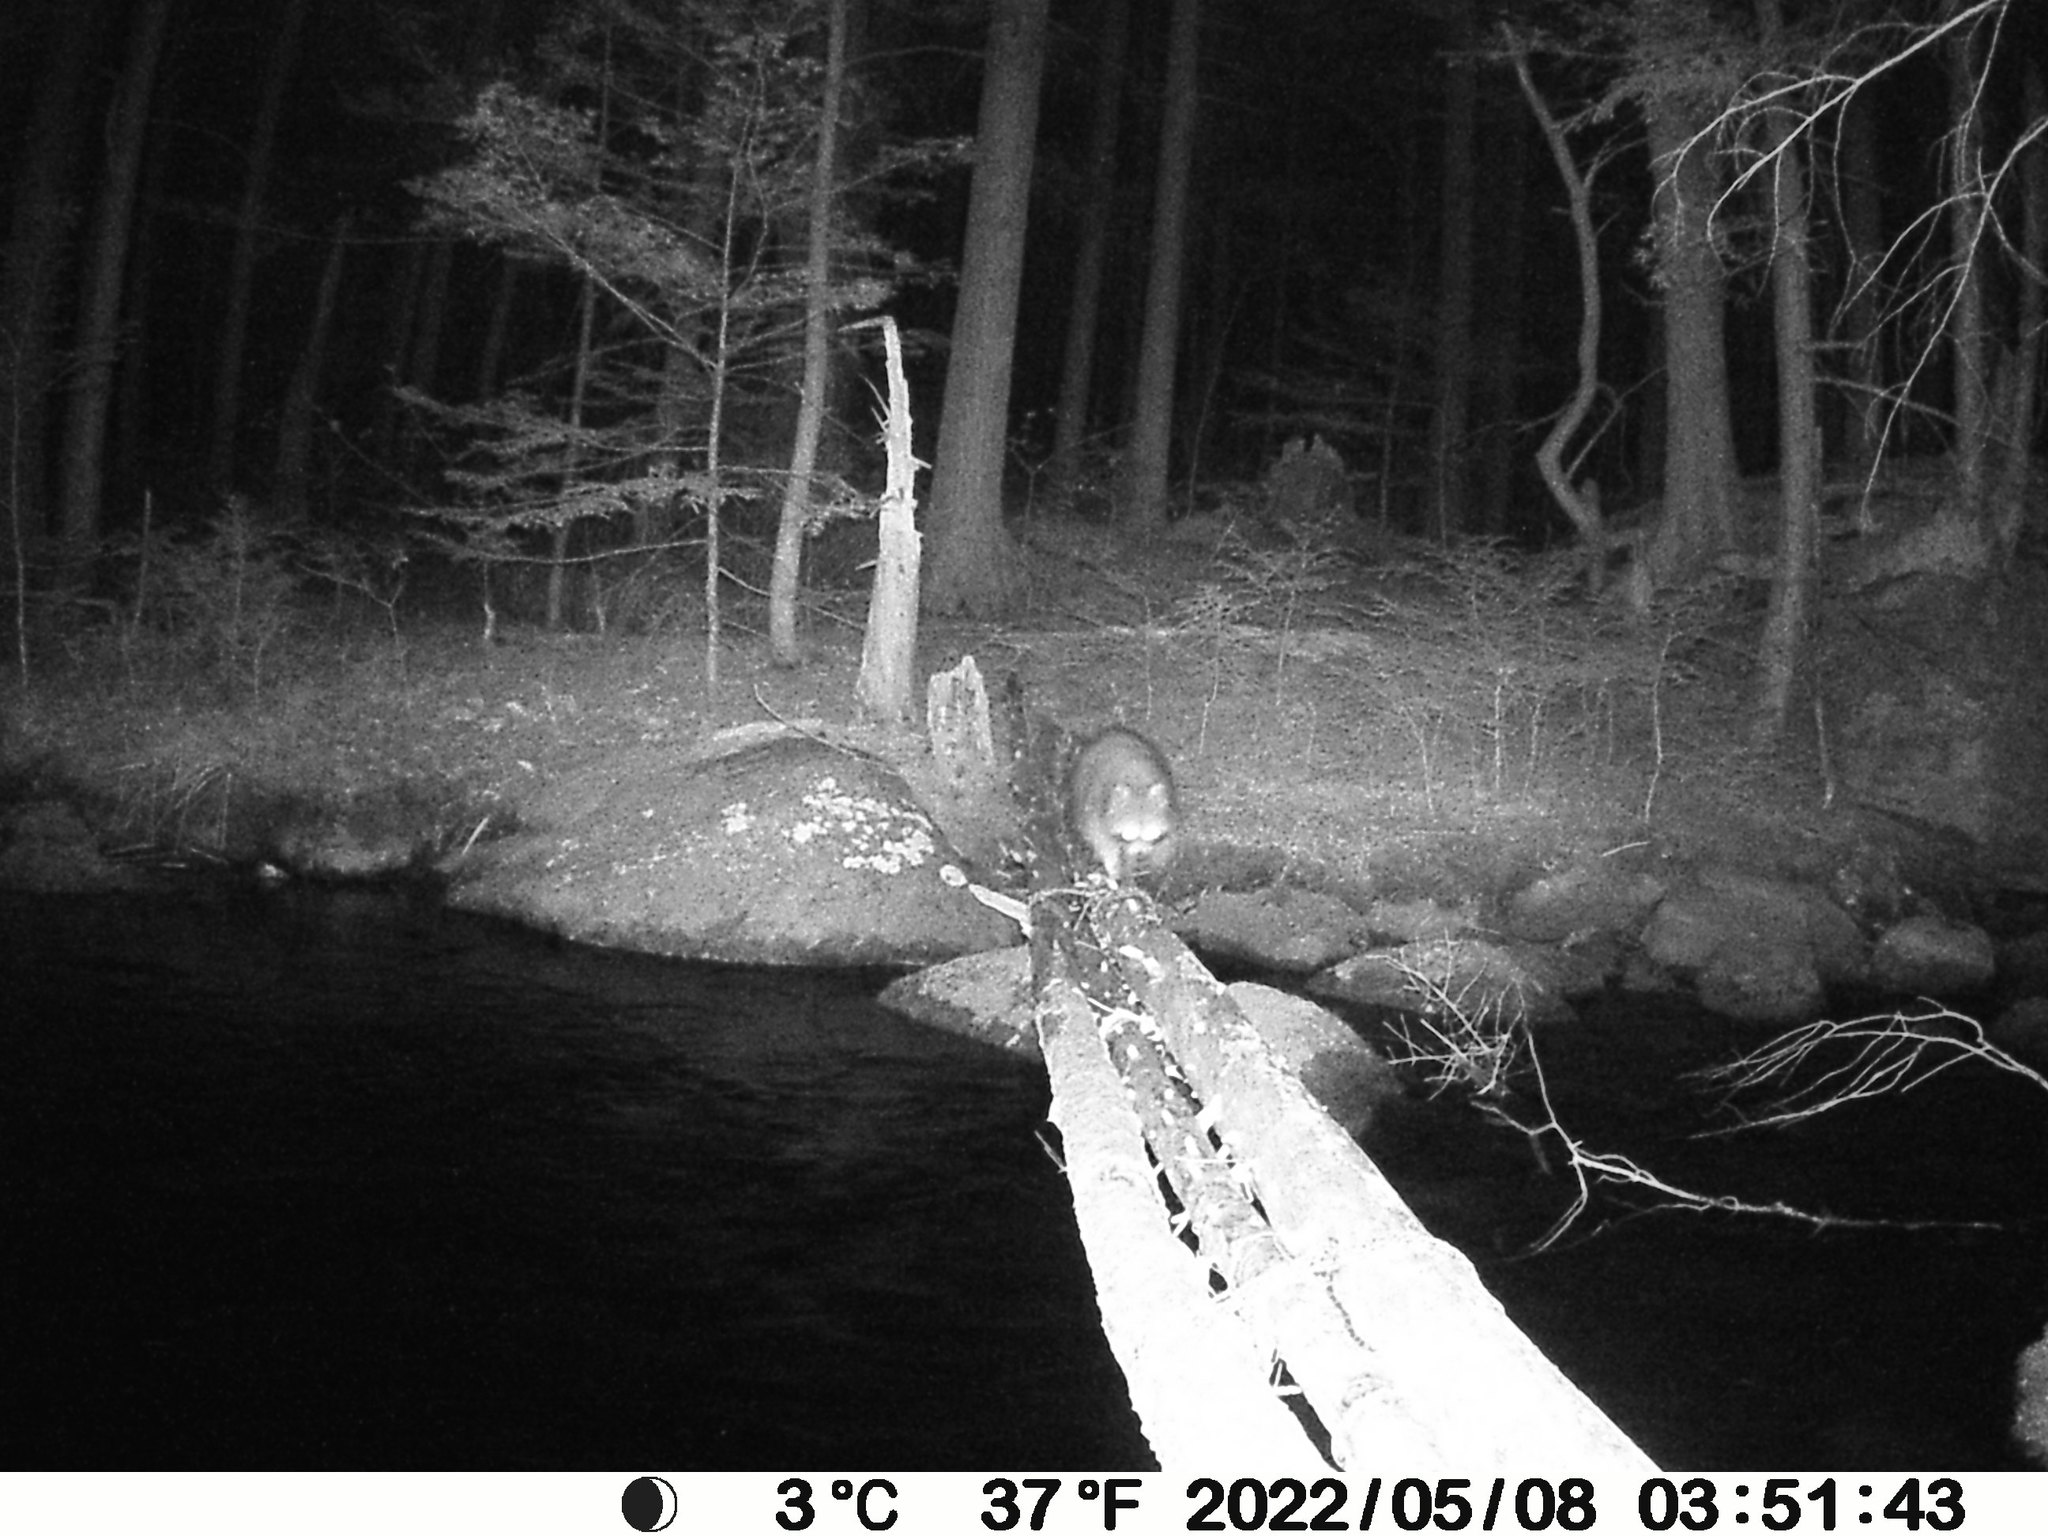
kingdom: Animalia
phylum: Chordata
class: Mammalia
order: Carnivora
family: Procyonidae
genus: Procyon
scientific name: Procyon lotor
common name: Raccoon
